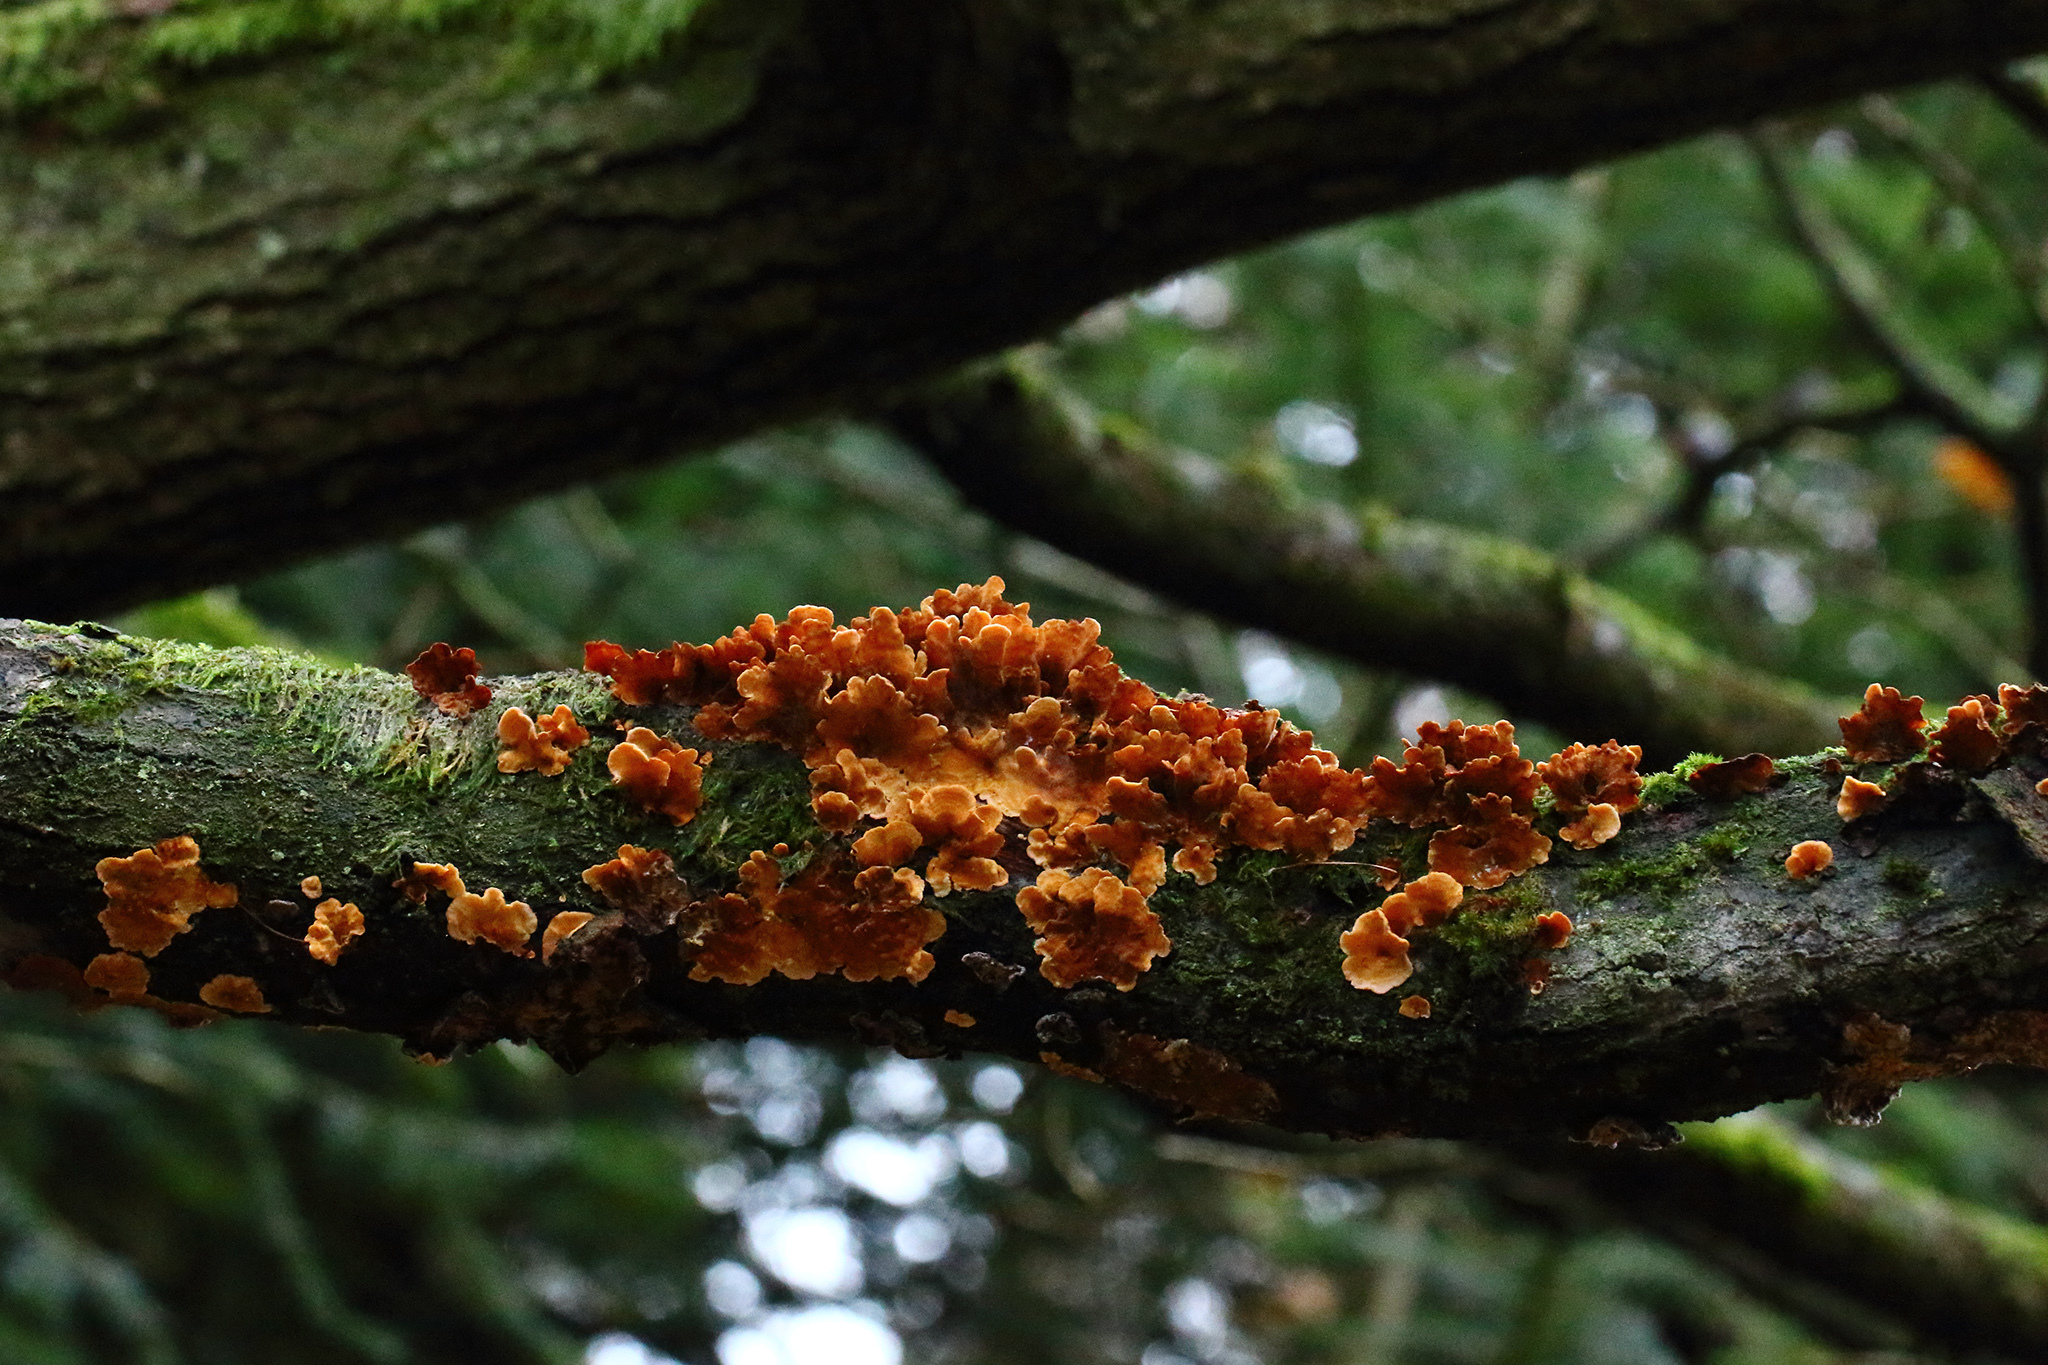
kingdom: Fungi
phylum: Basidiomycota
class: Agaricomycetes
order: Russulales
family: Stereaceae
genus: Stereum
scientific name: Stereum hirsutum
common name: Hairy curtain crust
